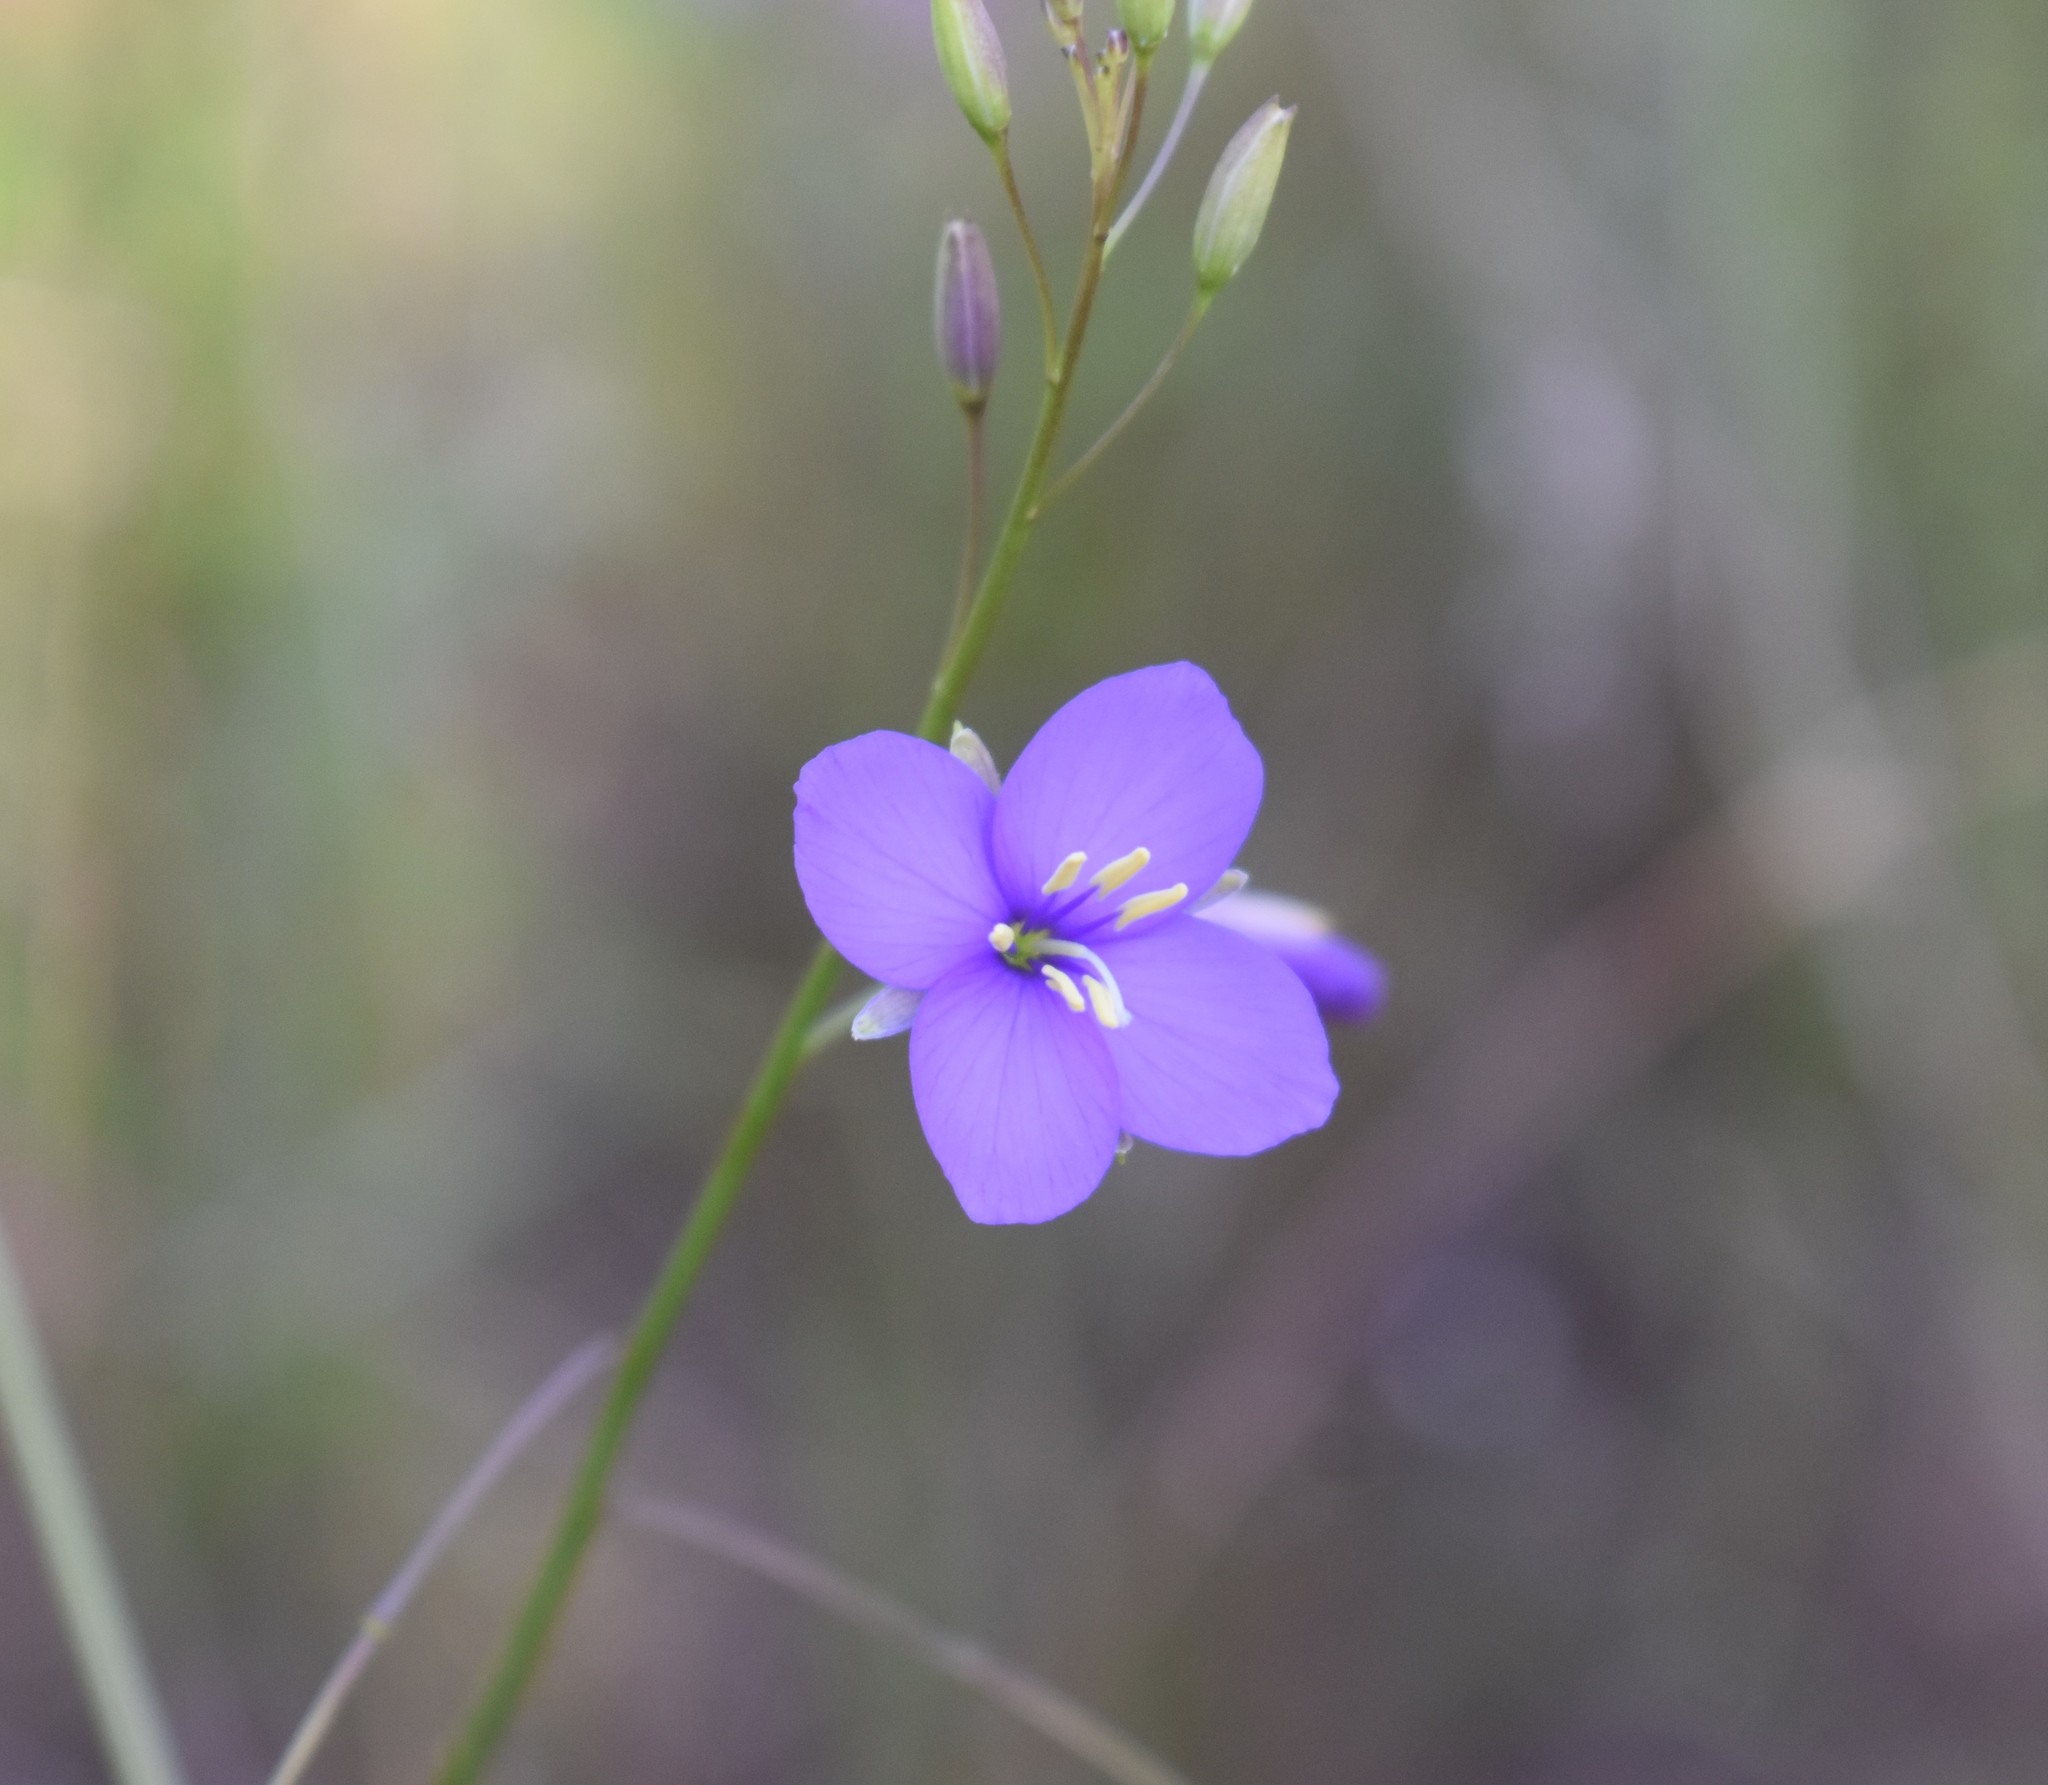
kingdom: Plantae
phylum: Tracheophyta
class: Magnoliopsida
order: Brassicales
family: Brassicaceae
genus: Heliophila
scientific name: Heliophila subulata
